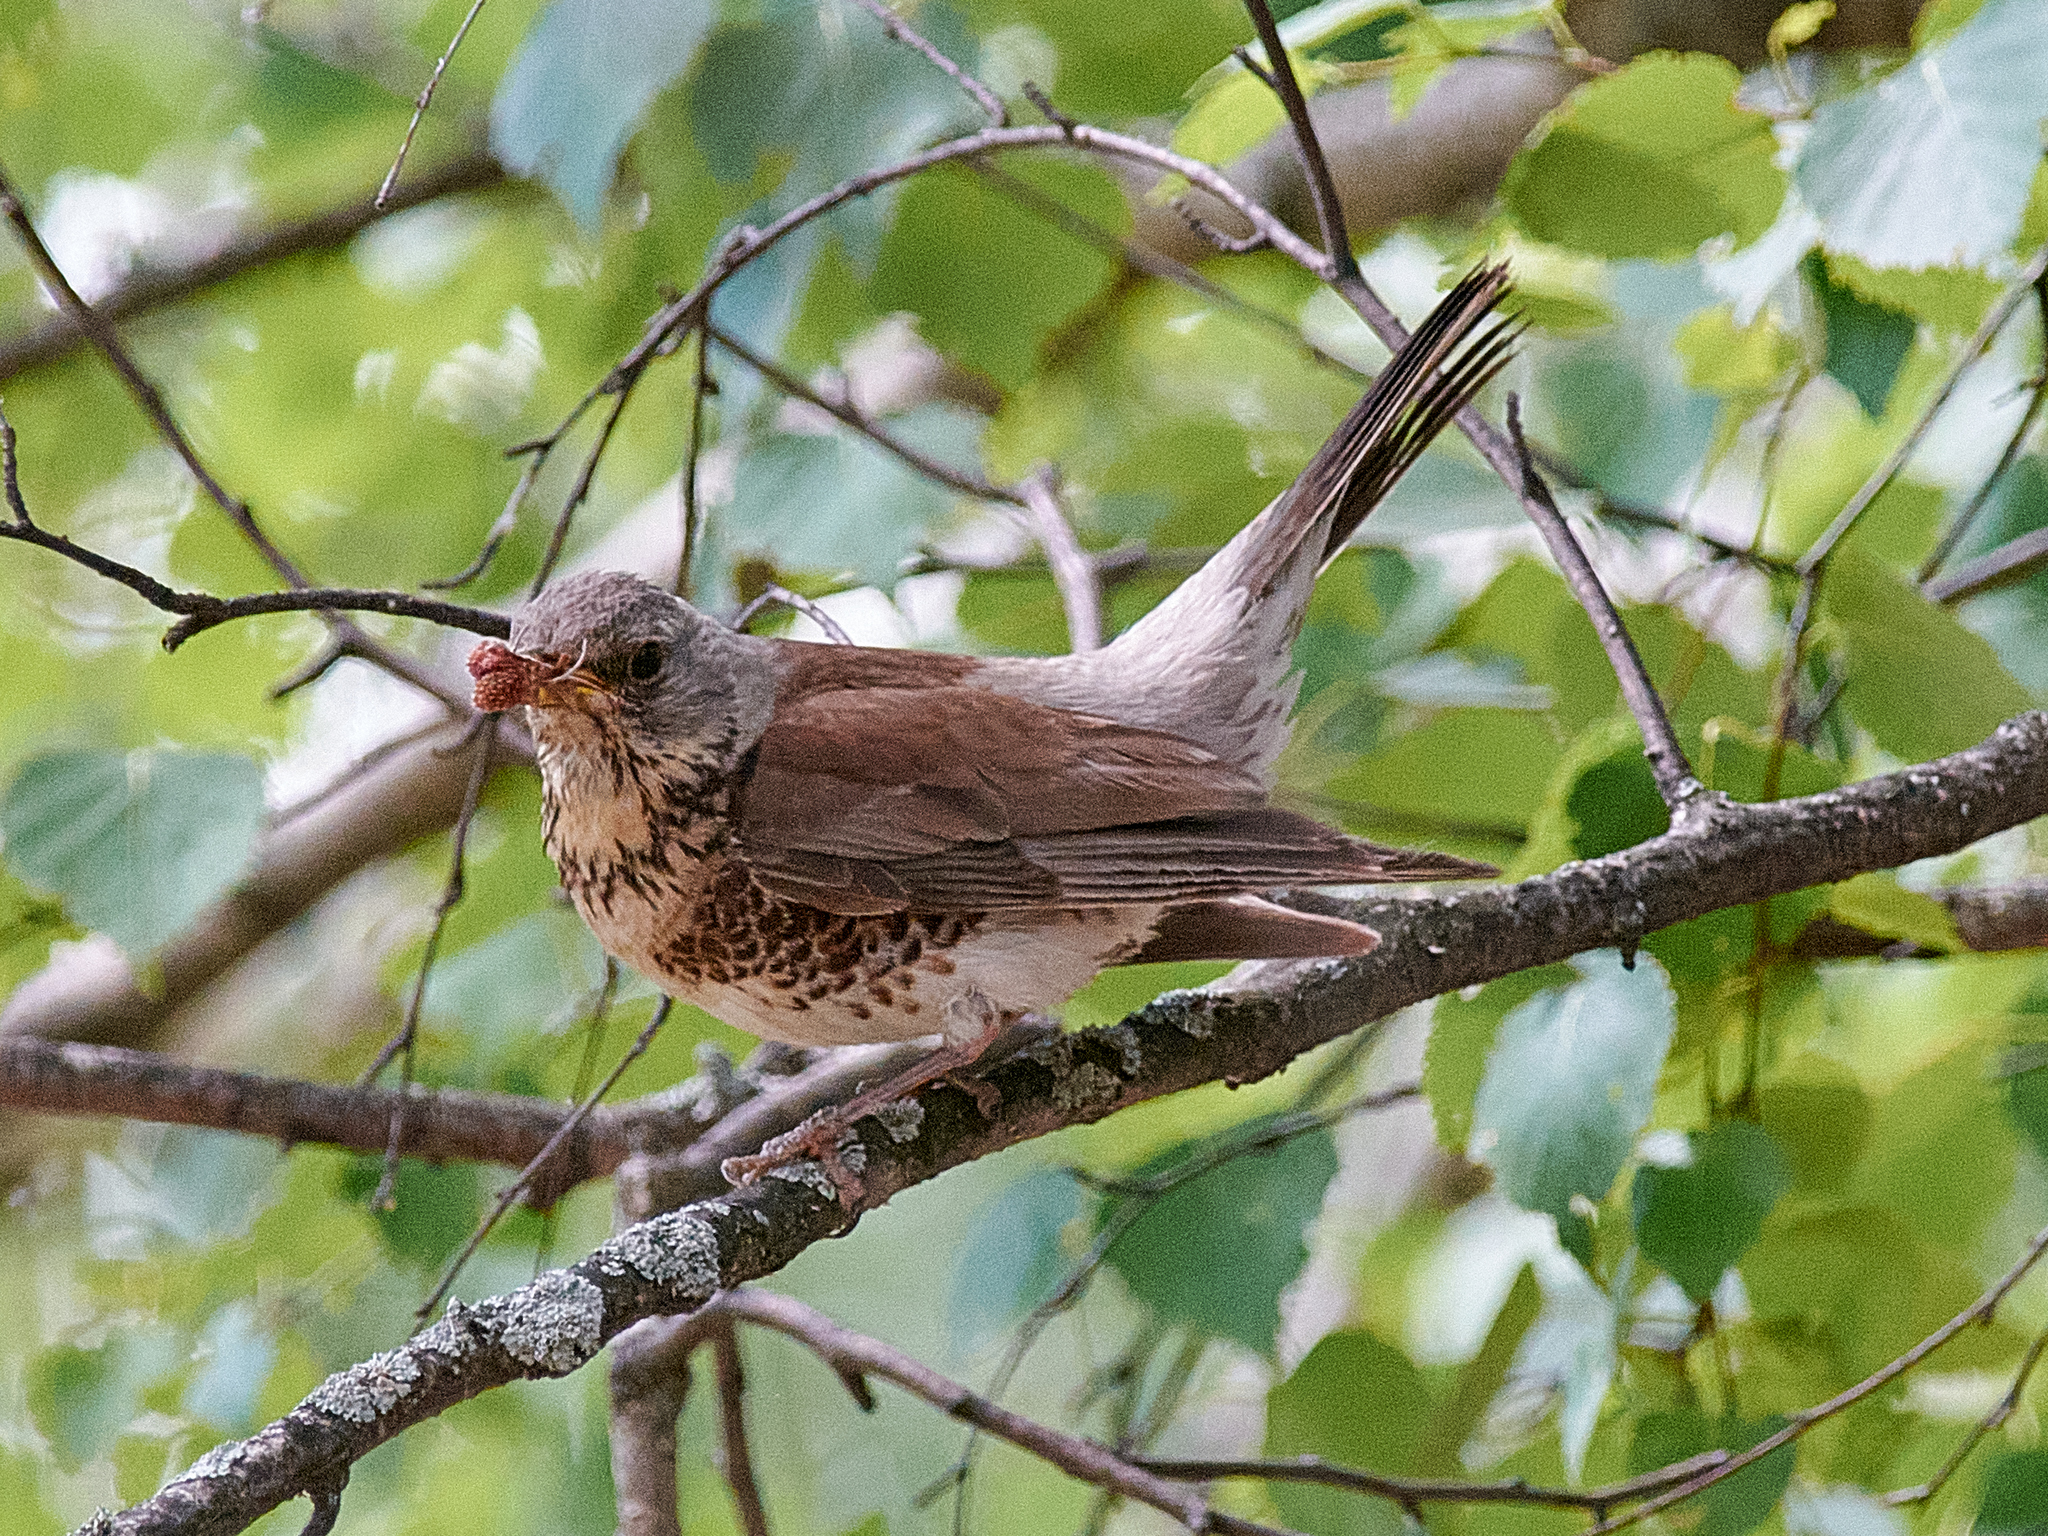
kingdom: Animalia
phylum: Chordata
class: Aves
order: Passeriformes
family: Turdidae
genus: Turdus
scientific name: Turdus pilaris
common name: Fieldfare
